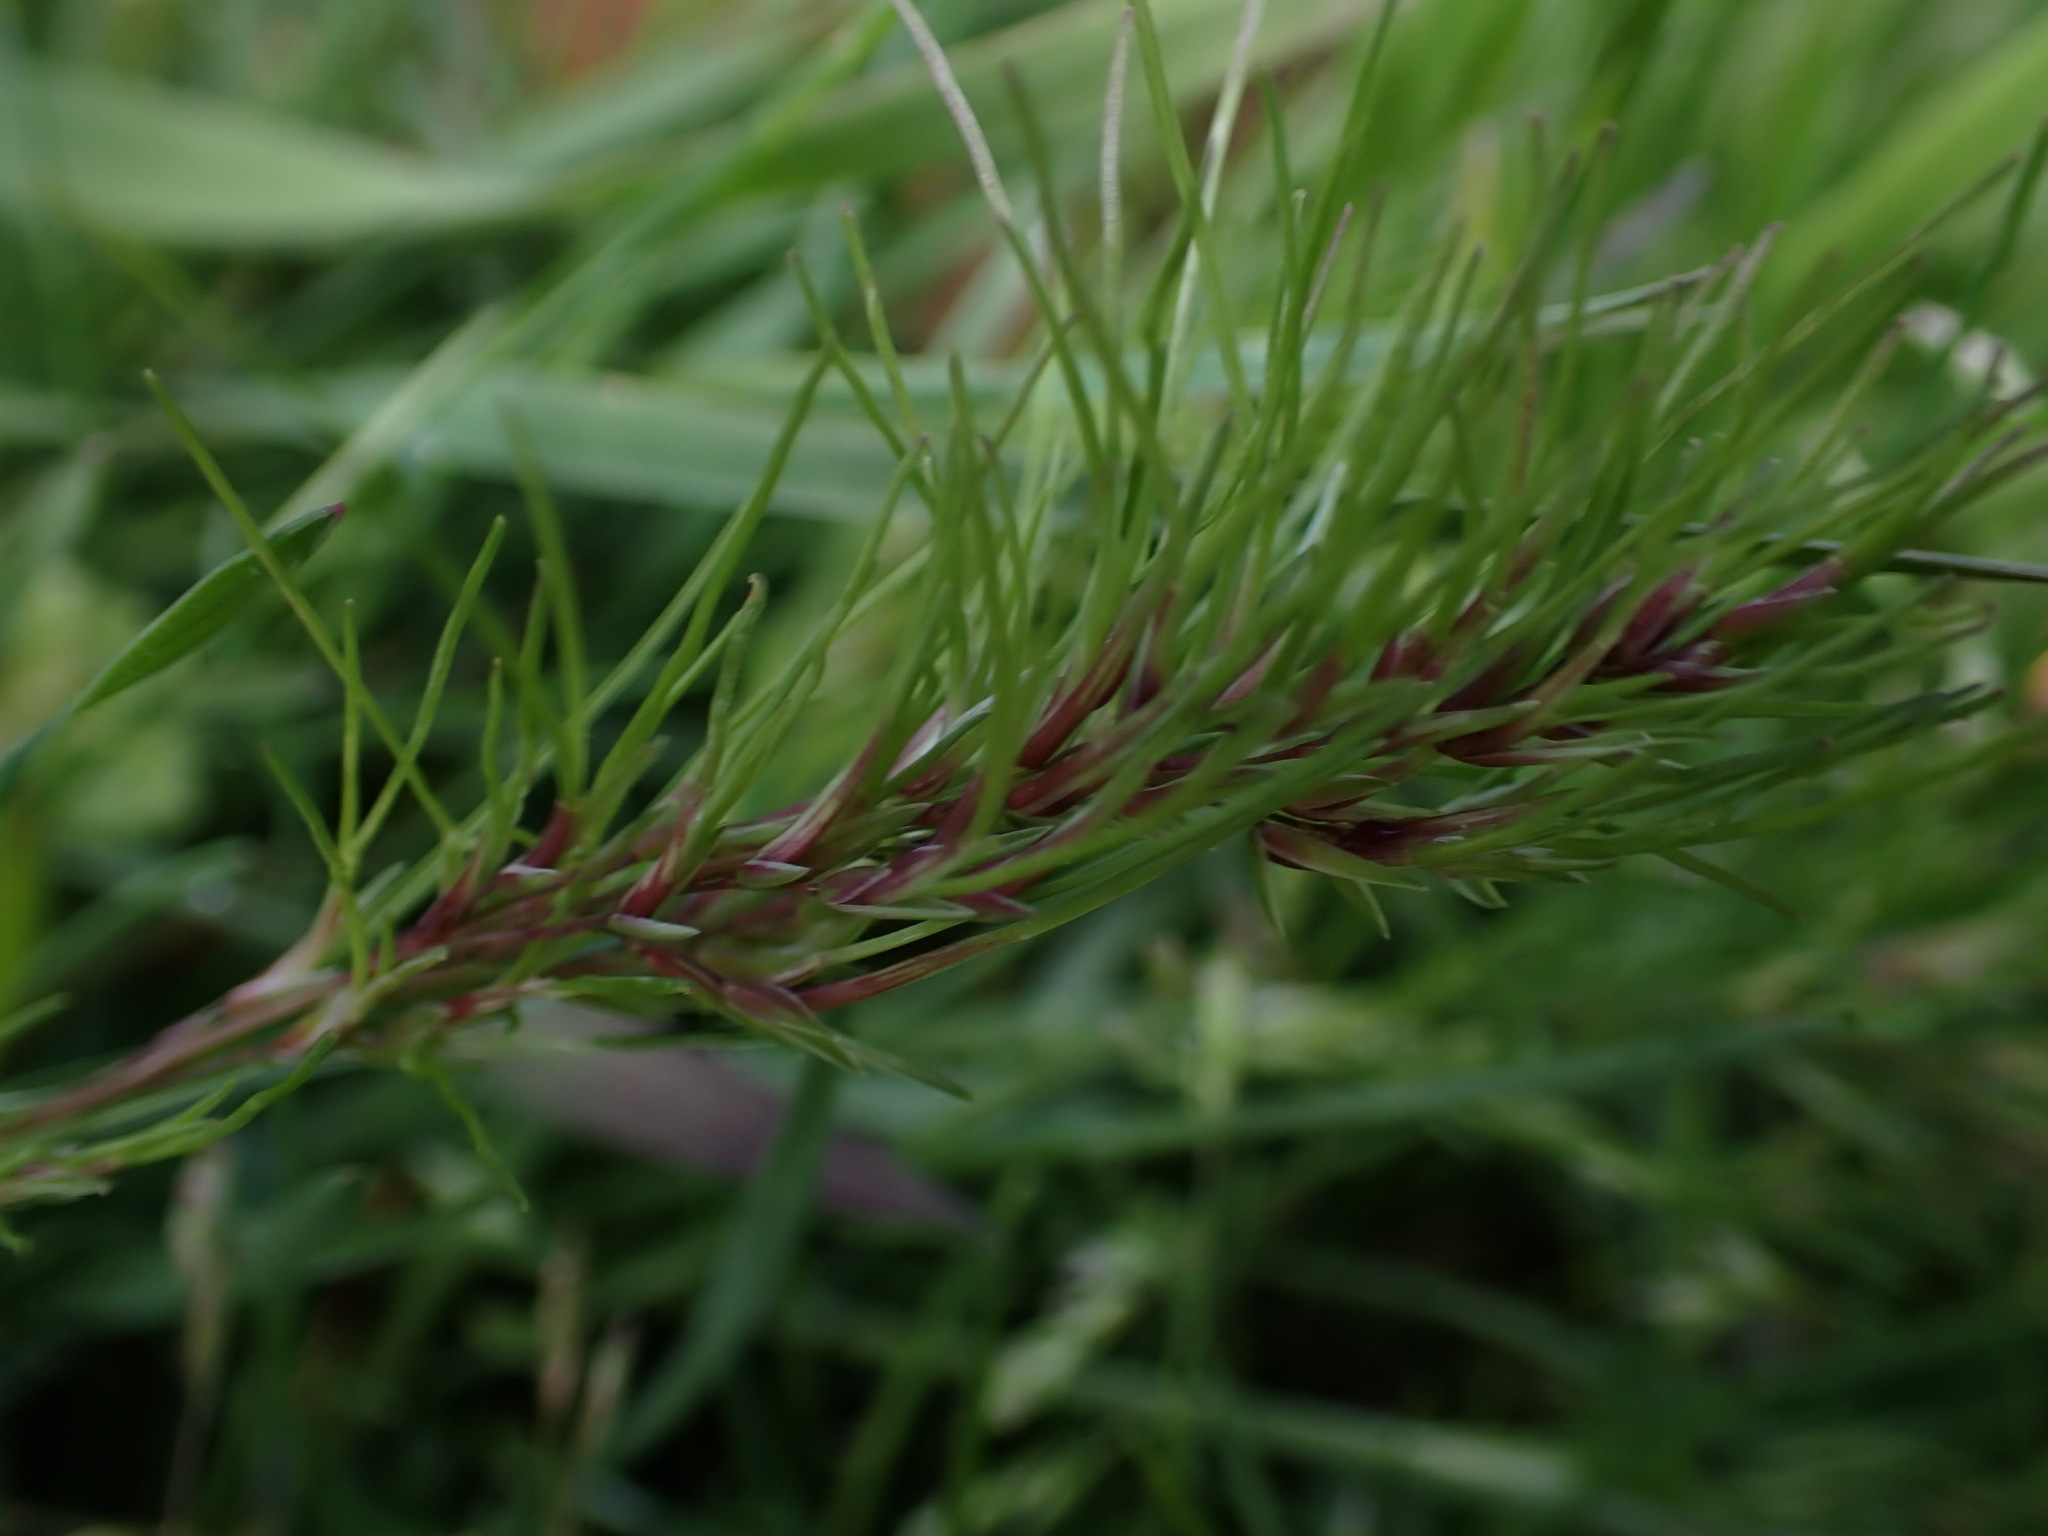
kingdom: Plantae
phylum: Tracheophyta
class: Liliopsida
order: Poales
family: Poaceae
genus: Poa
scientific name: Poa bulbosa
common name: Bulbous bluegrass
